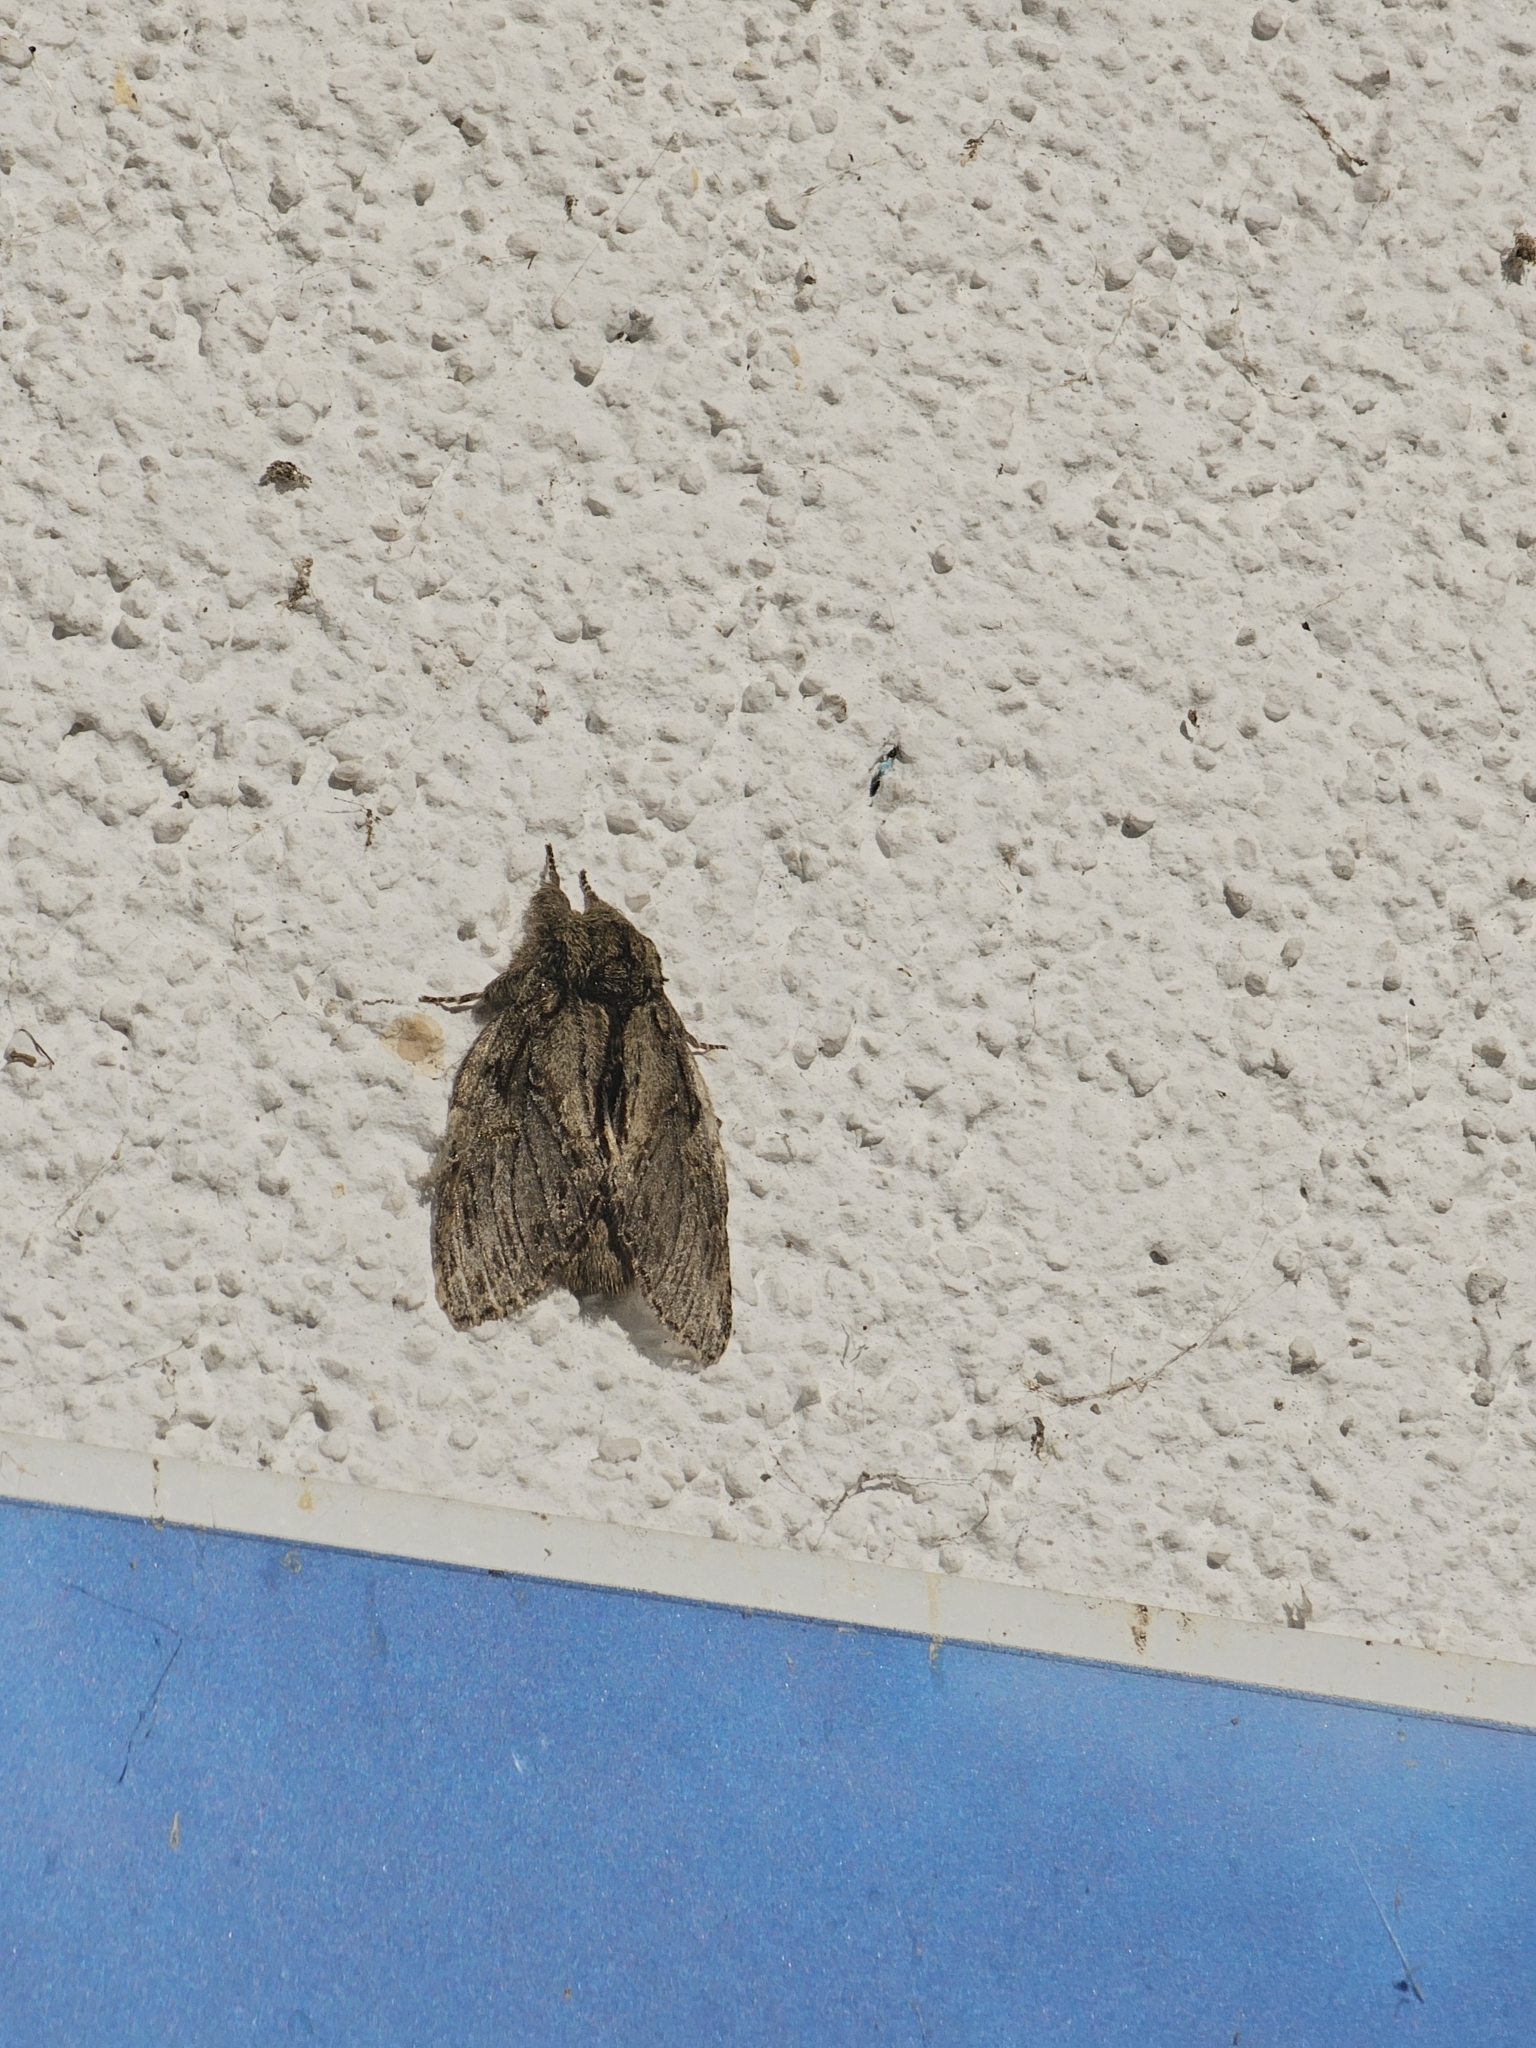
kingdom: Animalia
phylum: Arthropoda
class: Insecta
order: Lepidoptera
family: Notodontidae
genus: Peridea
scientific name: Peridea anceps
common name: Great prominent
